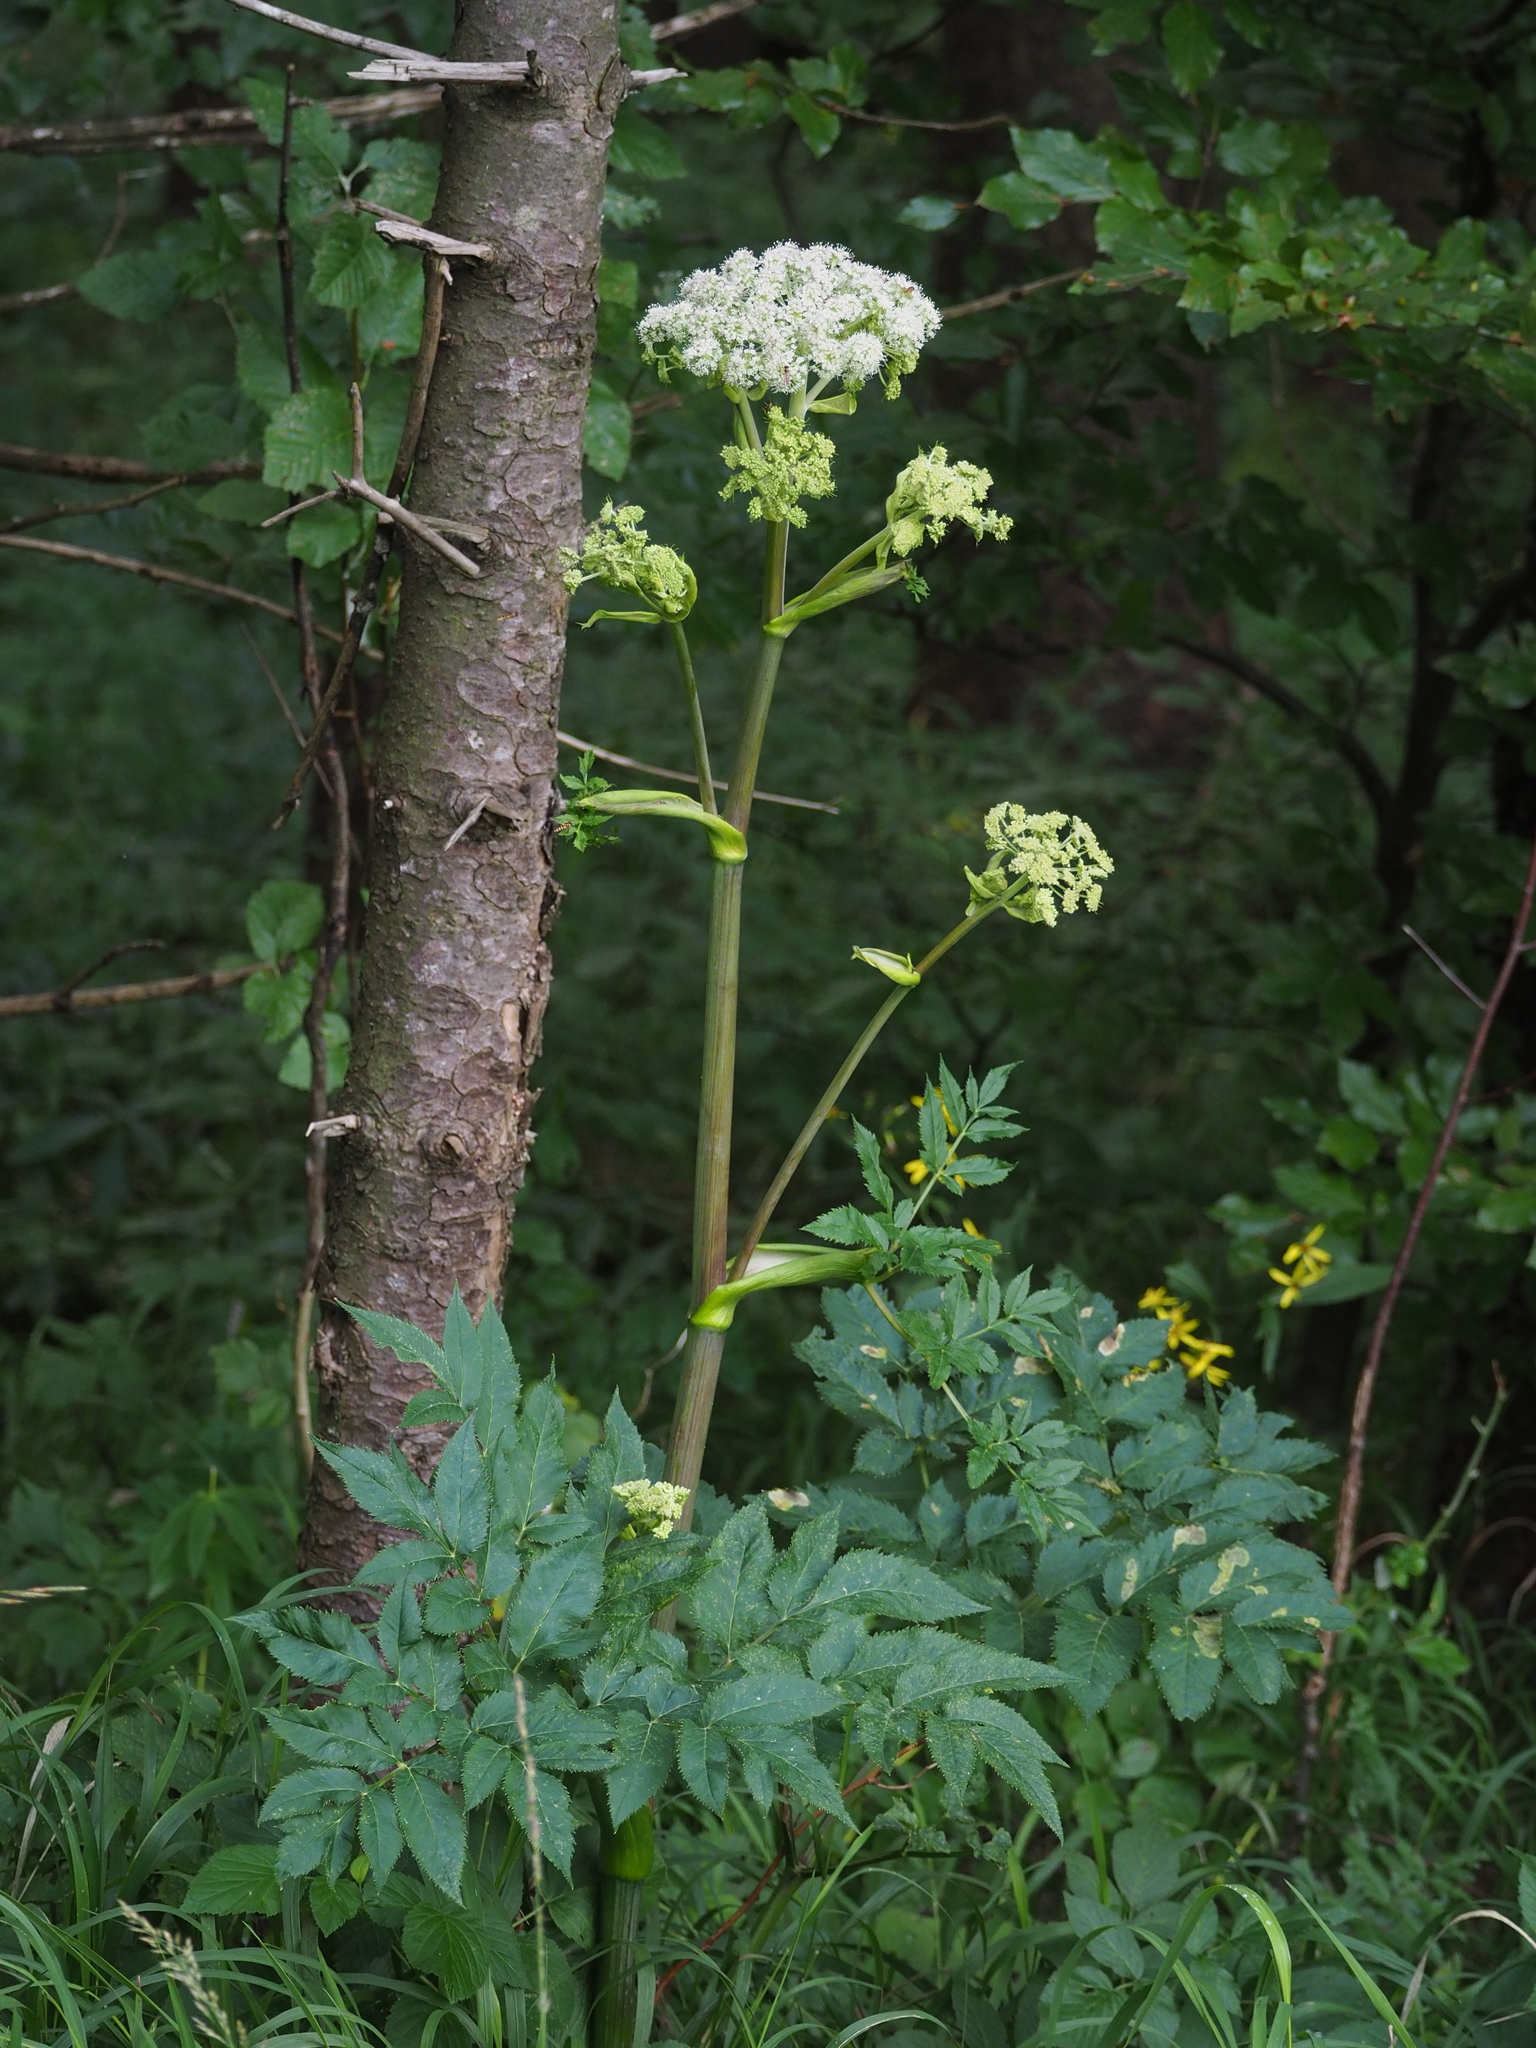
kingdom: Plantae
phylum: Tracheophyta
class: Magnoliopsida
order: Apiales
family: Apiaceae
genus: Angelica
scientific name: Angelica sylvestris
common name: Wild angelica
